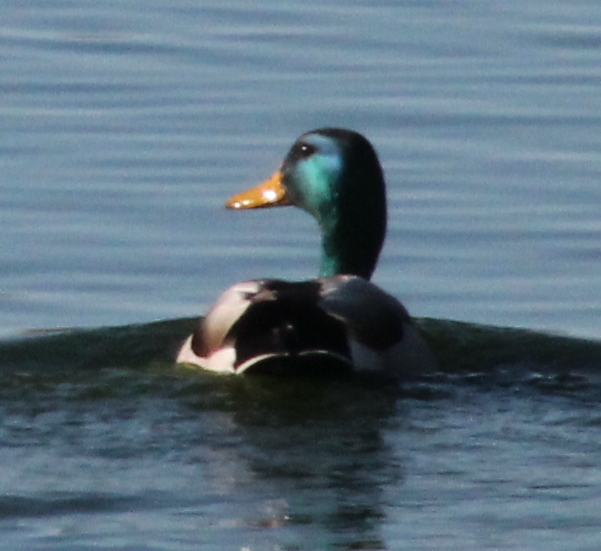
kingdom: Animalia
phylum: Chordata
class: Aves
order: Anseriformes
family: Anatidae
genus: Anas
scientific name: Anas platyrhynchos
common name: Mallard
